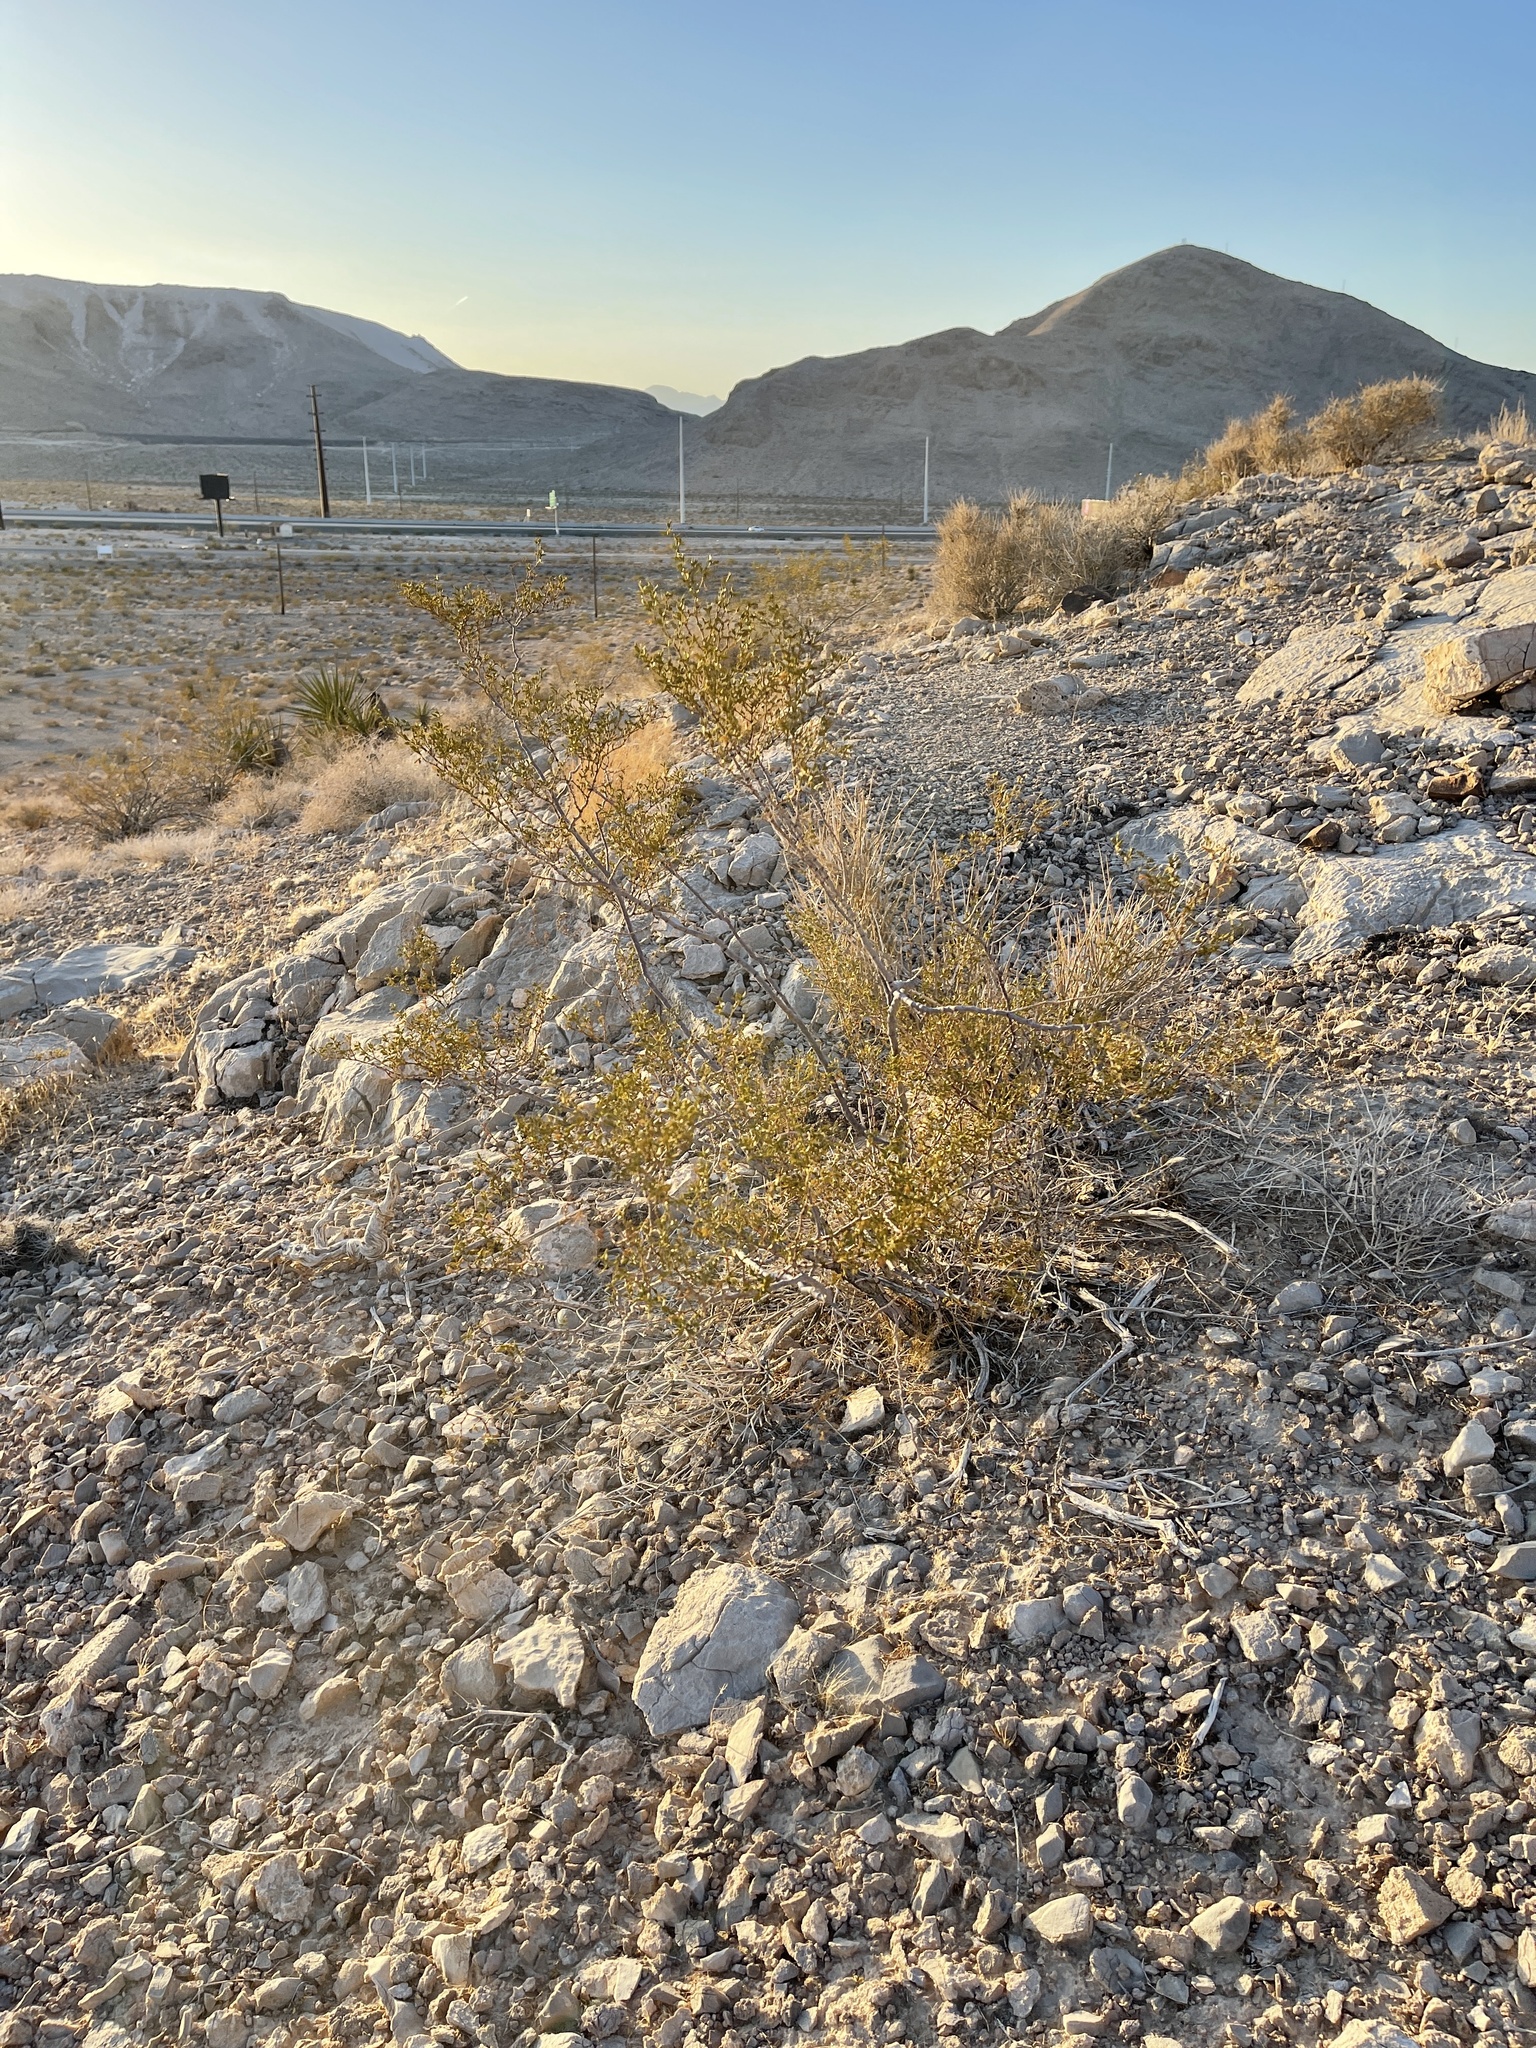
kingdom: Plantae
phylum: Tracheophyta
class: Magnoliopsida
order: Zygophyllales
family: Zygophyllaceae
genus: Larrea
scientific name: Larrea tridentata
